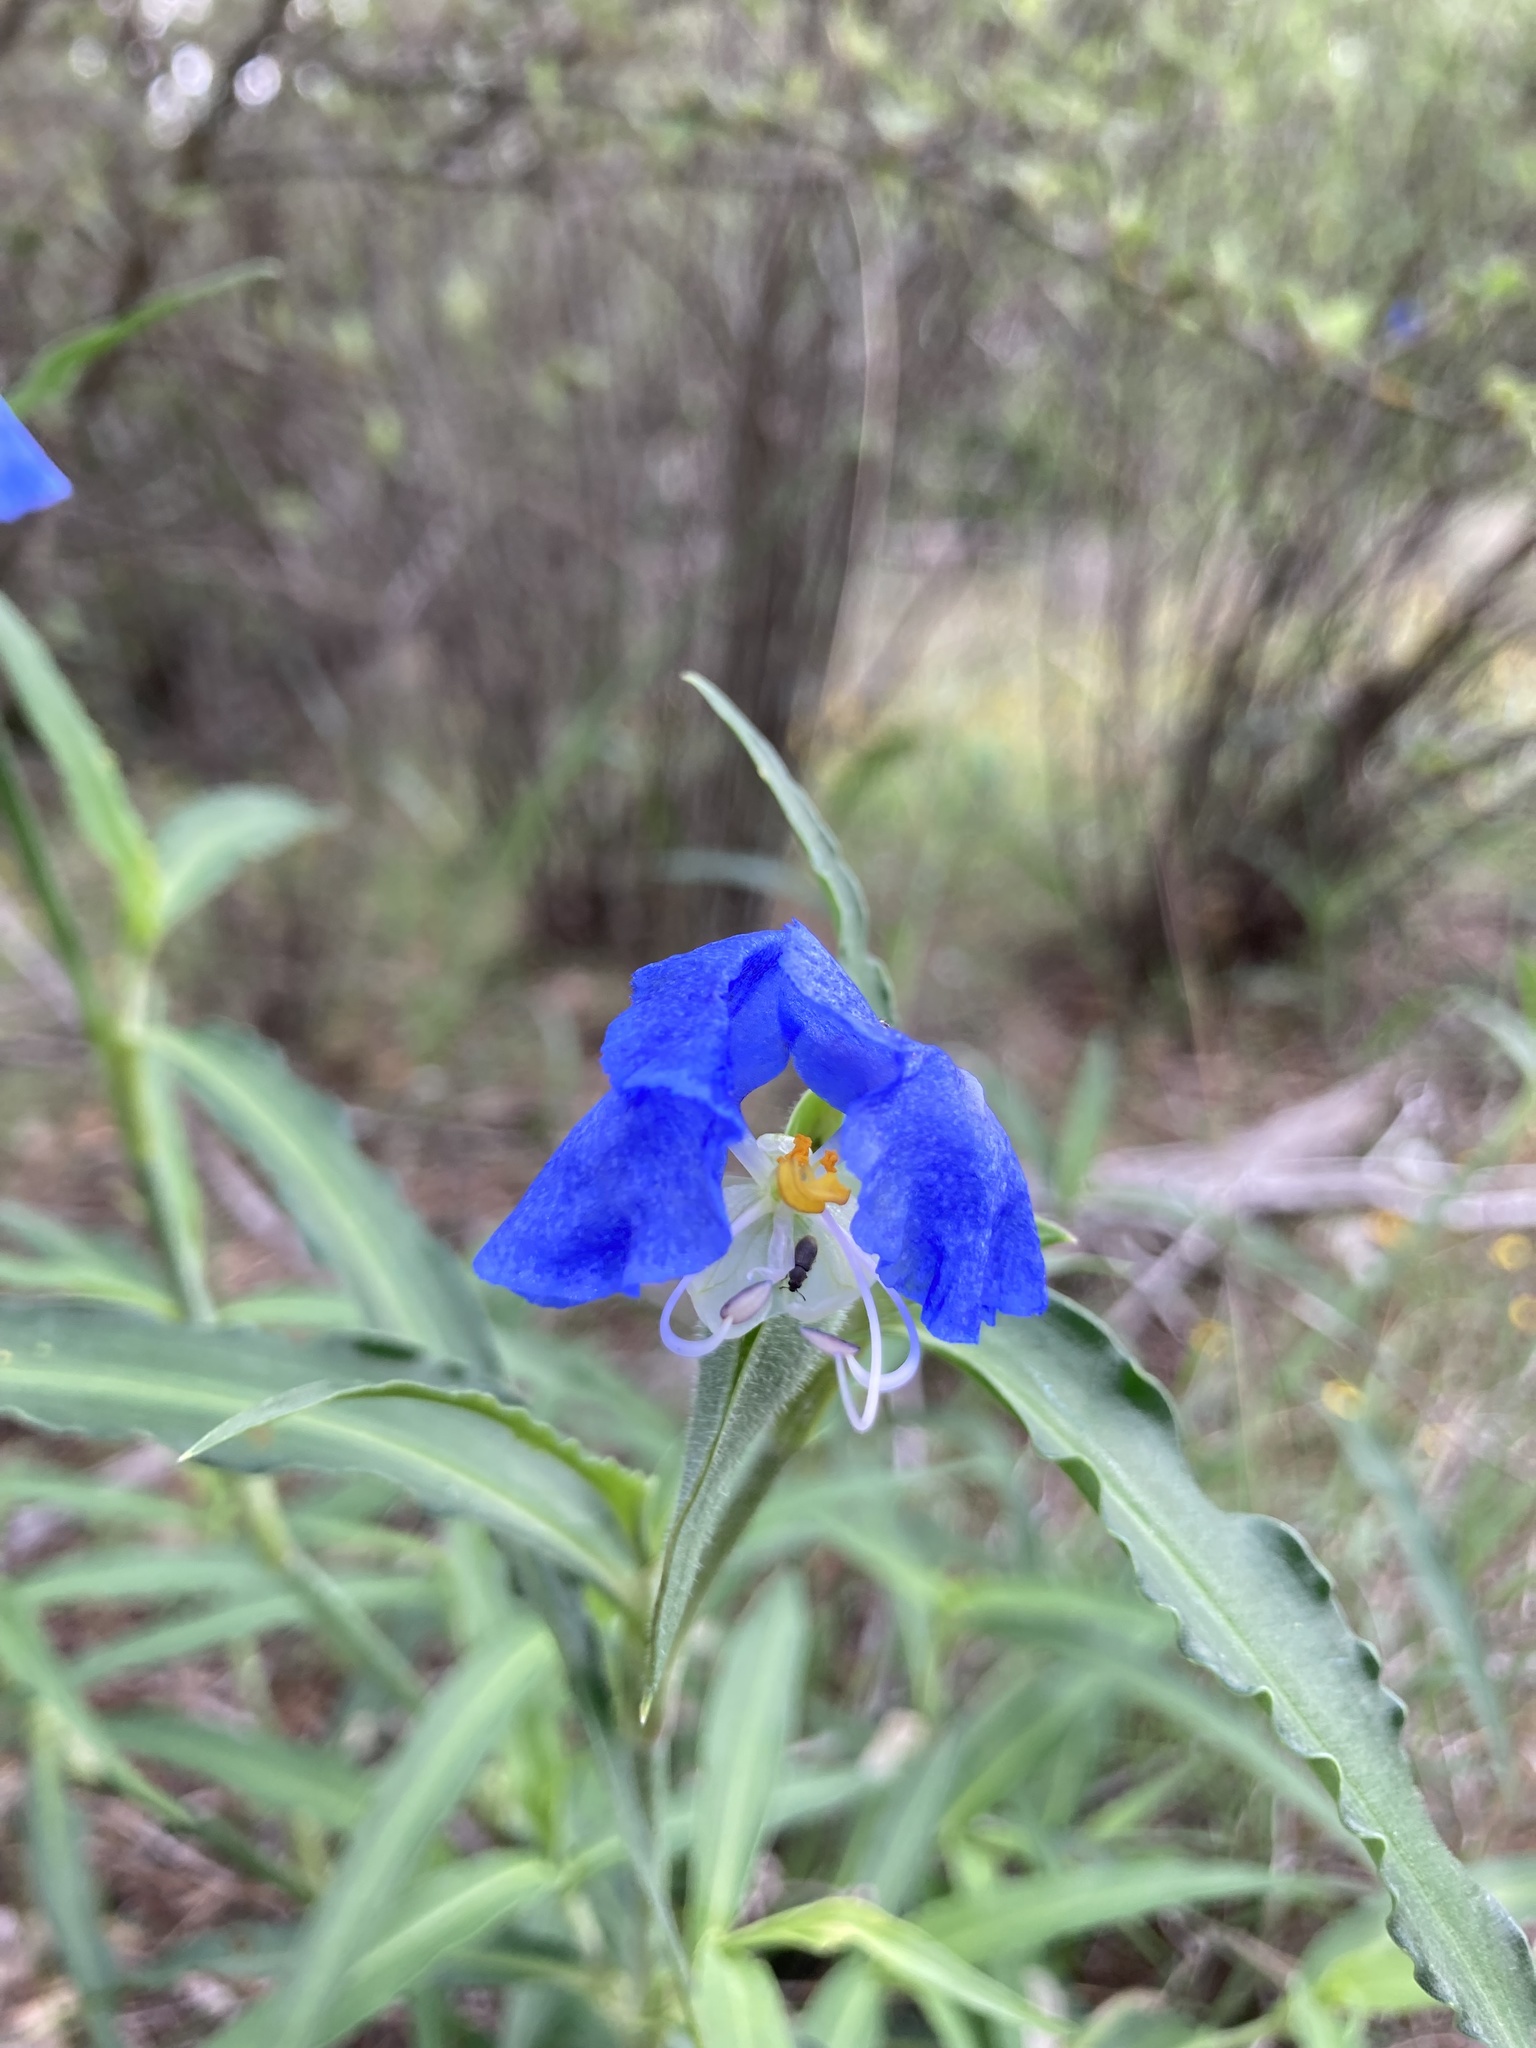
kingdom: Plantae
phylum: Tracheophyta
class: Liliopsida
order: Commelinales
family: Commelinaceae
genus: Commelina
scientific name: Commelina erecta
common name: Blousel blommetjie
